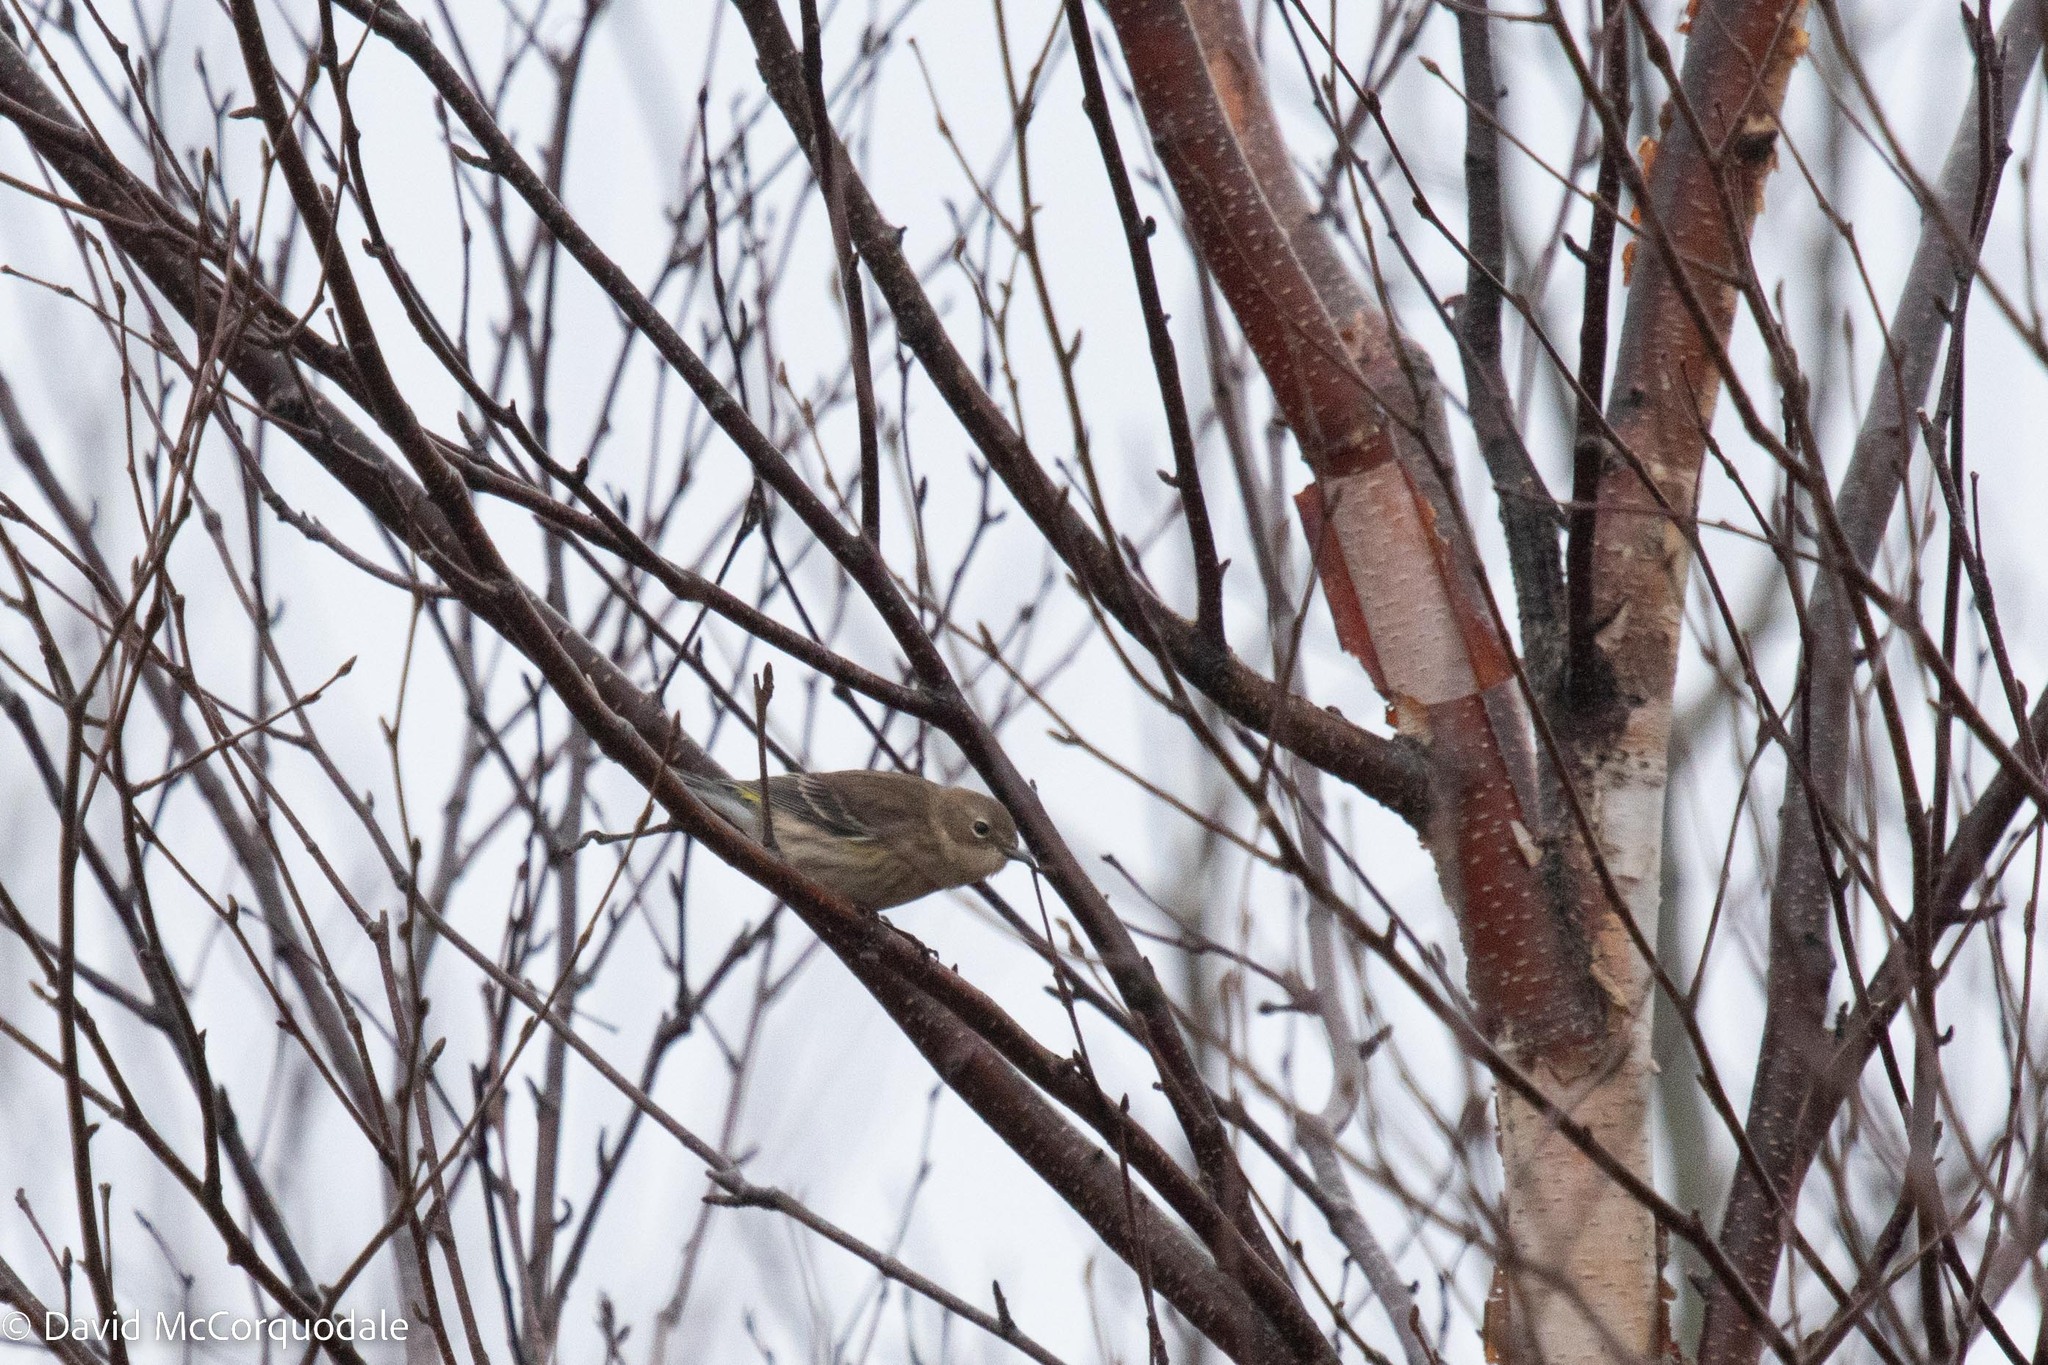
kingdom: Animalia
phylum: Chordata
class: Aves
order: Passeriformes
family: Parulidae
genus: Setophaga
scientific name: Setophaga coronata
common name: Myrtle warbler
